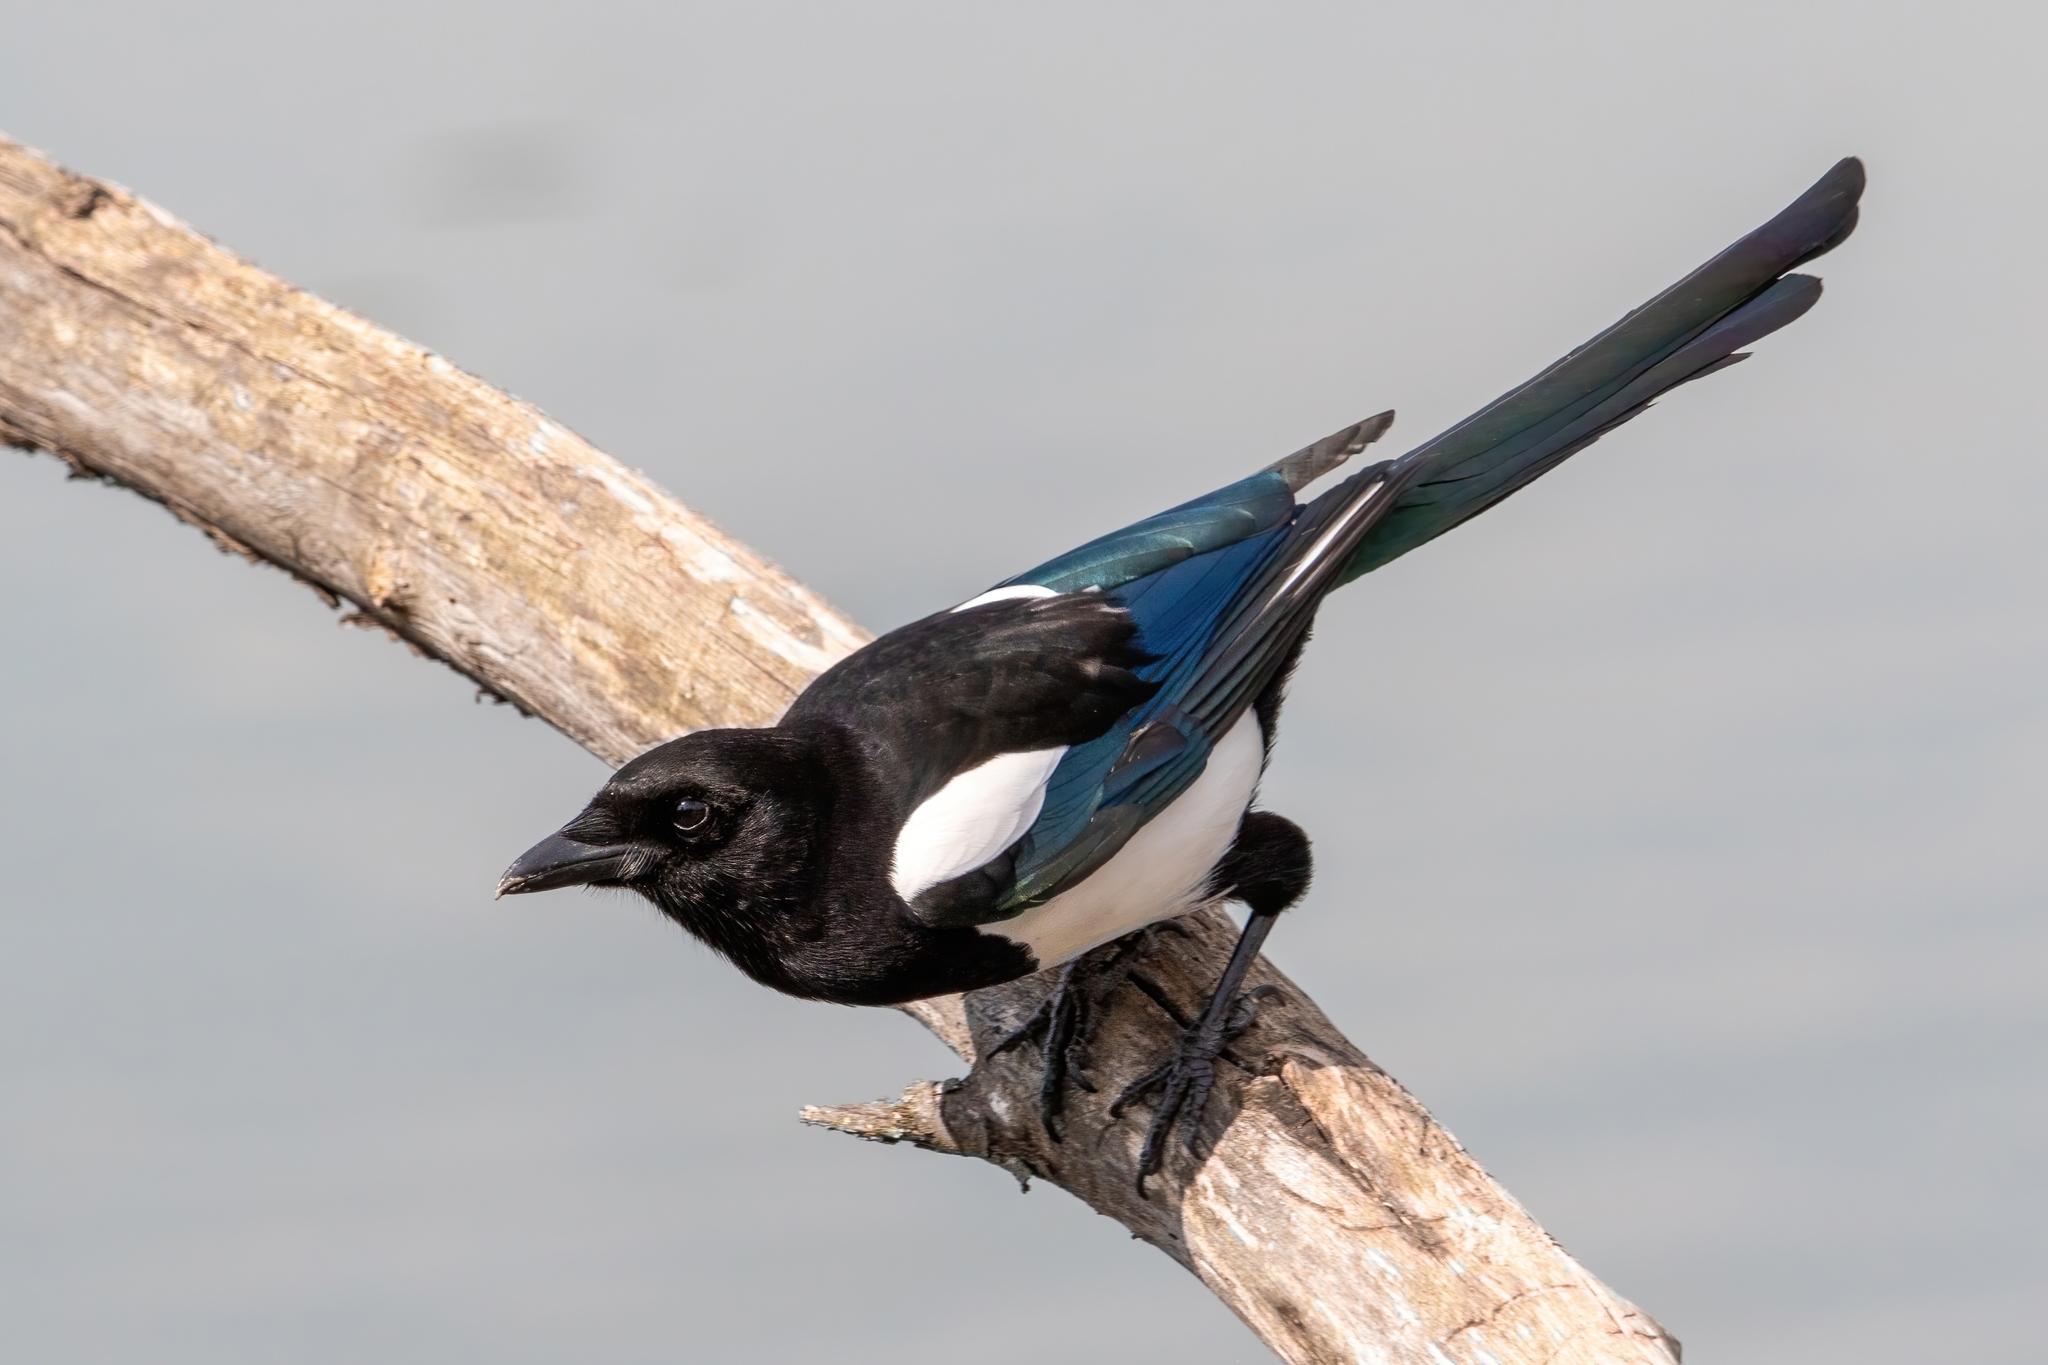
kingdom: Animalia
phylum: Chordata
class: Aves
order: Passeriformes
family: Corvidae
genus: Pica
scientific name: Pica pica
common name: Eurasian magpie
